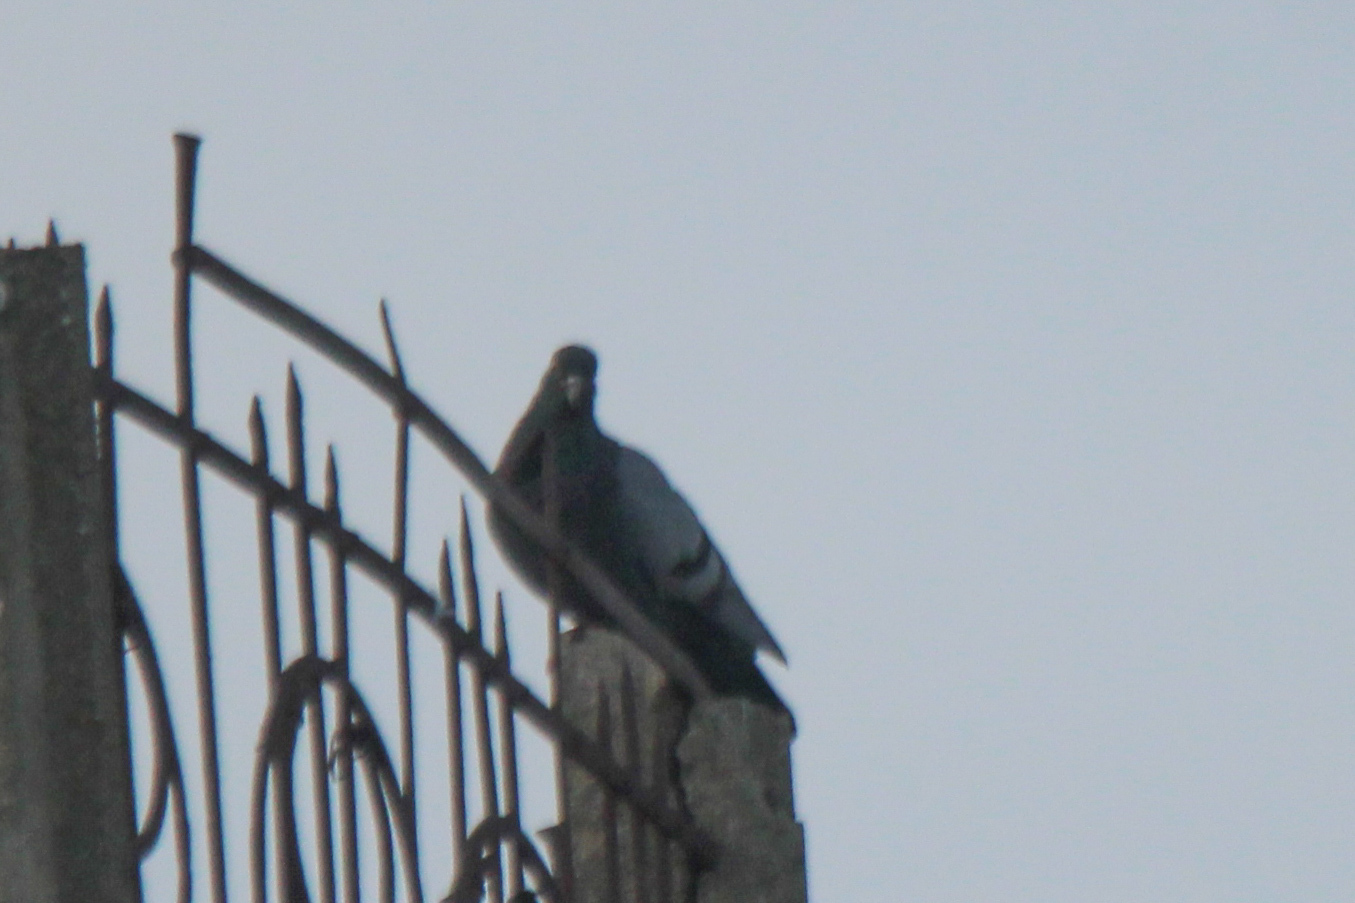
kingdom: Animalia
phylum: Chordata
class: Aves
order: Columbiformes
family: Columbidae
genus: Columba
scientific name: Columba livia
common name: Rock pigeon
